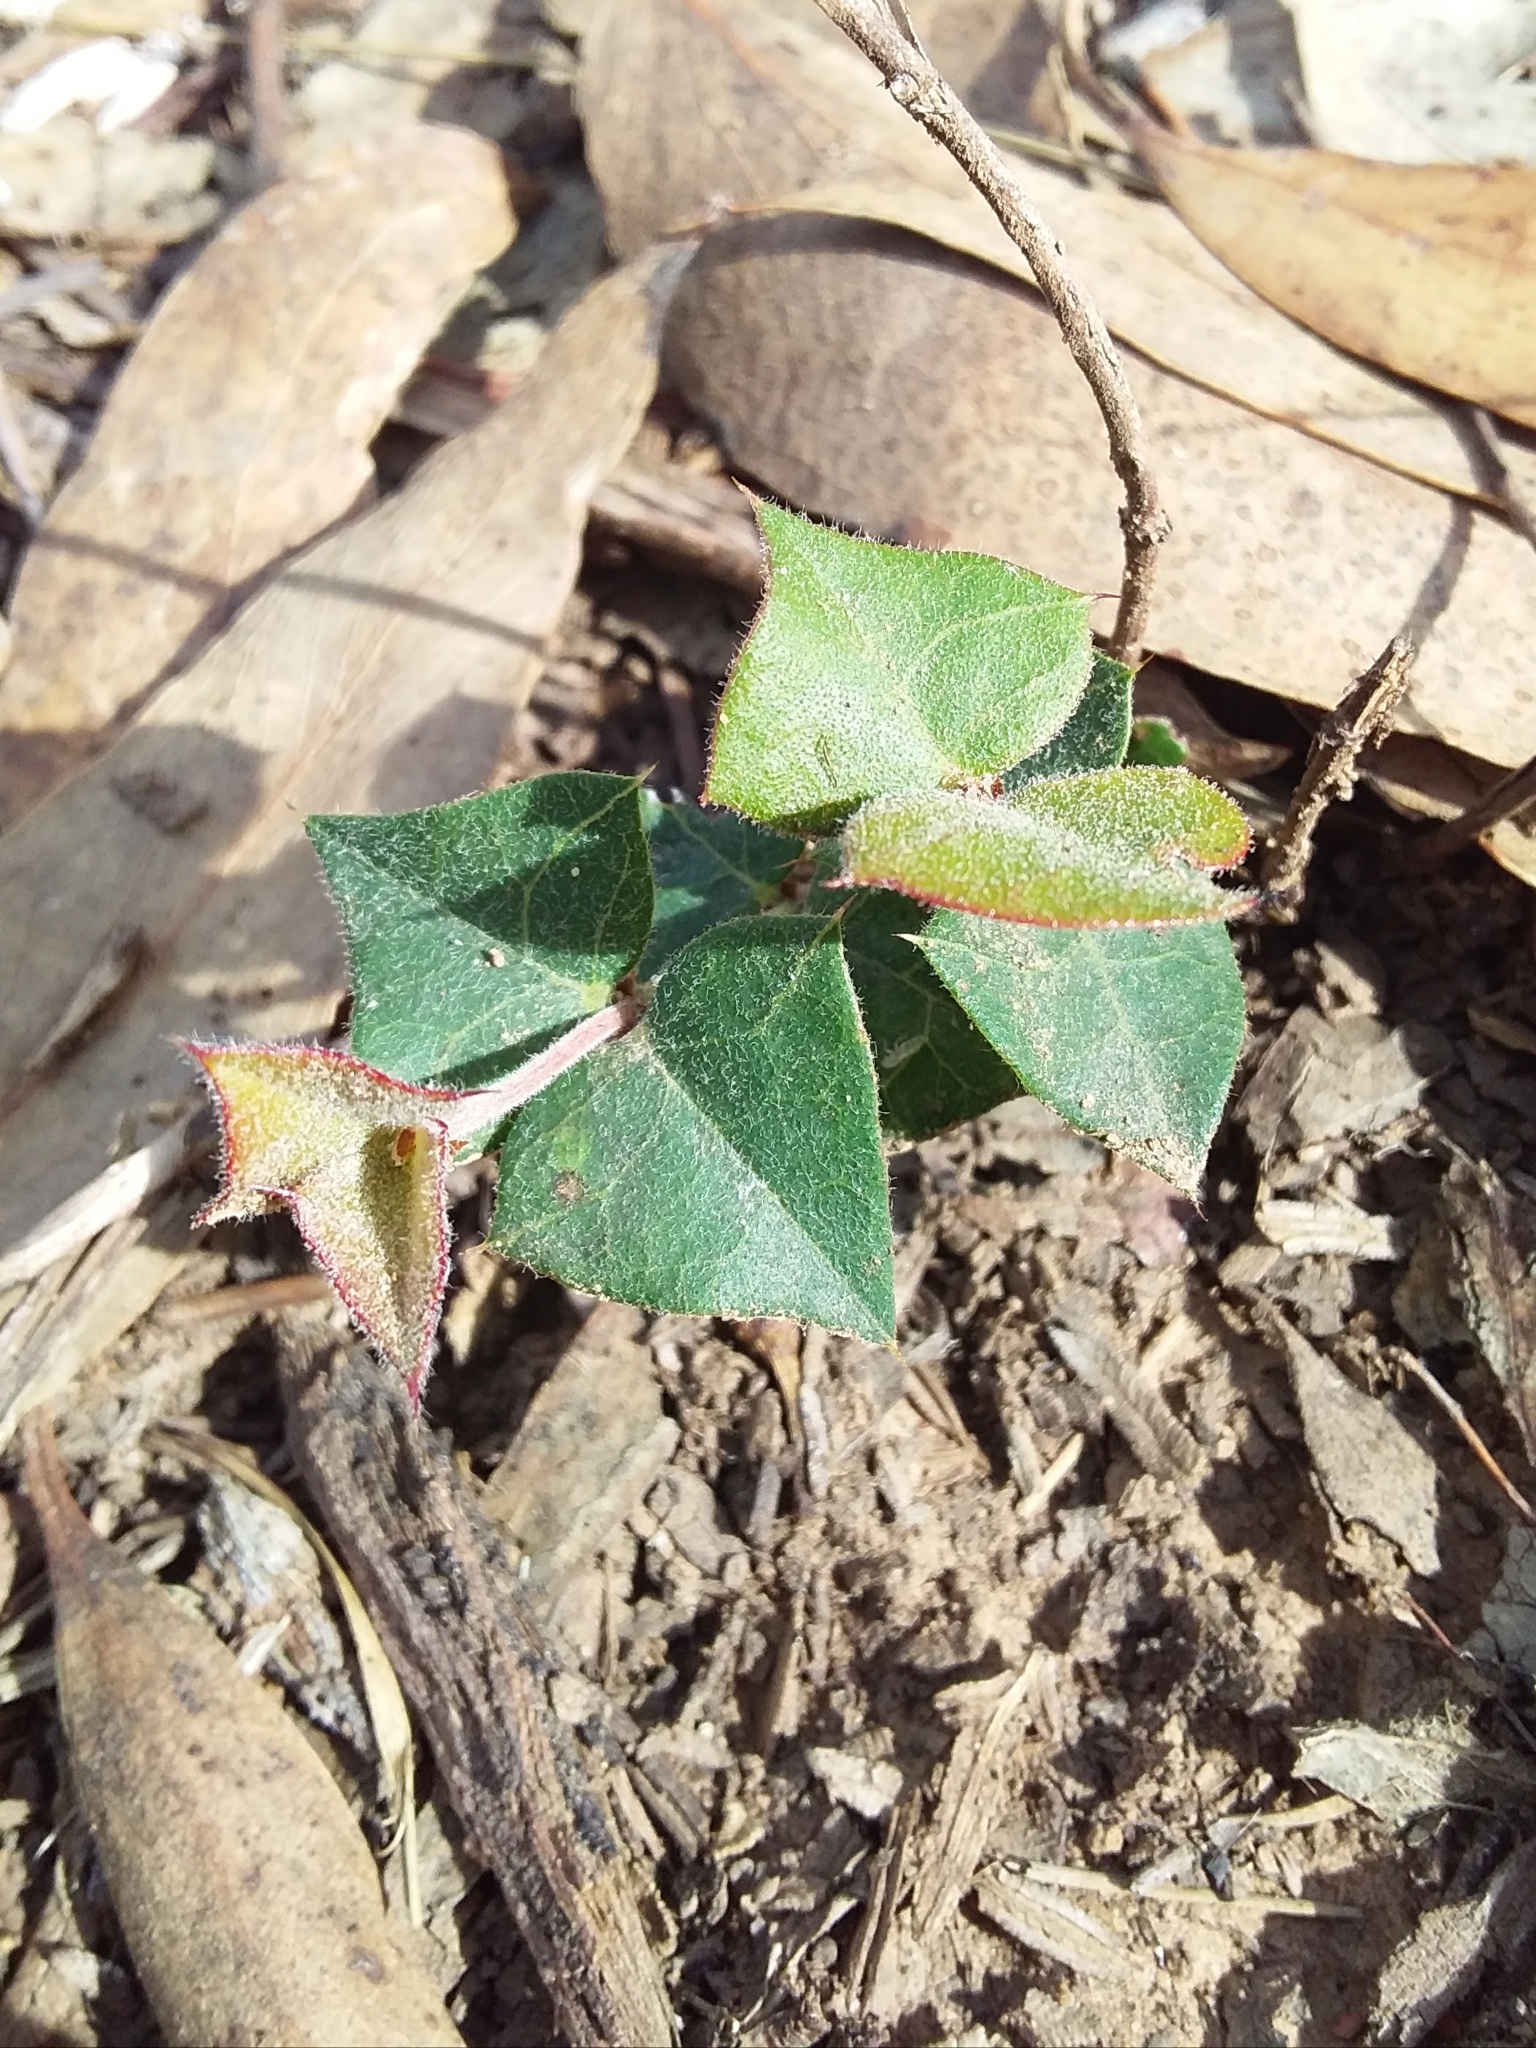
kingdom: Plantae
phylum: Tracheophyta
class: Magnoliopsida
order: Fabales
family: Fabaceae
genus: Platylobium
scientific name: Platylobium obtusangulum
